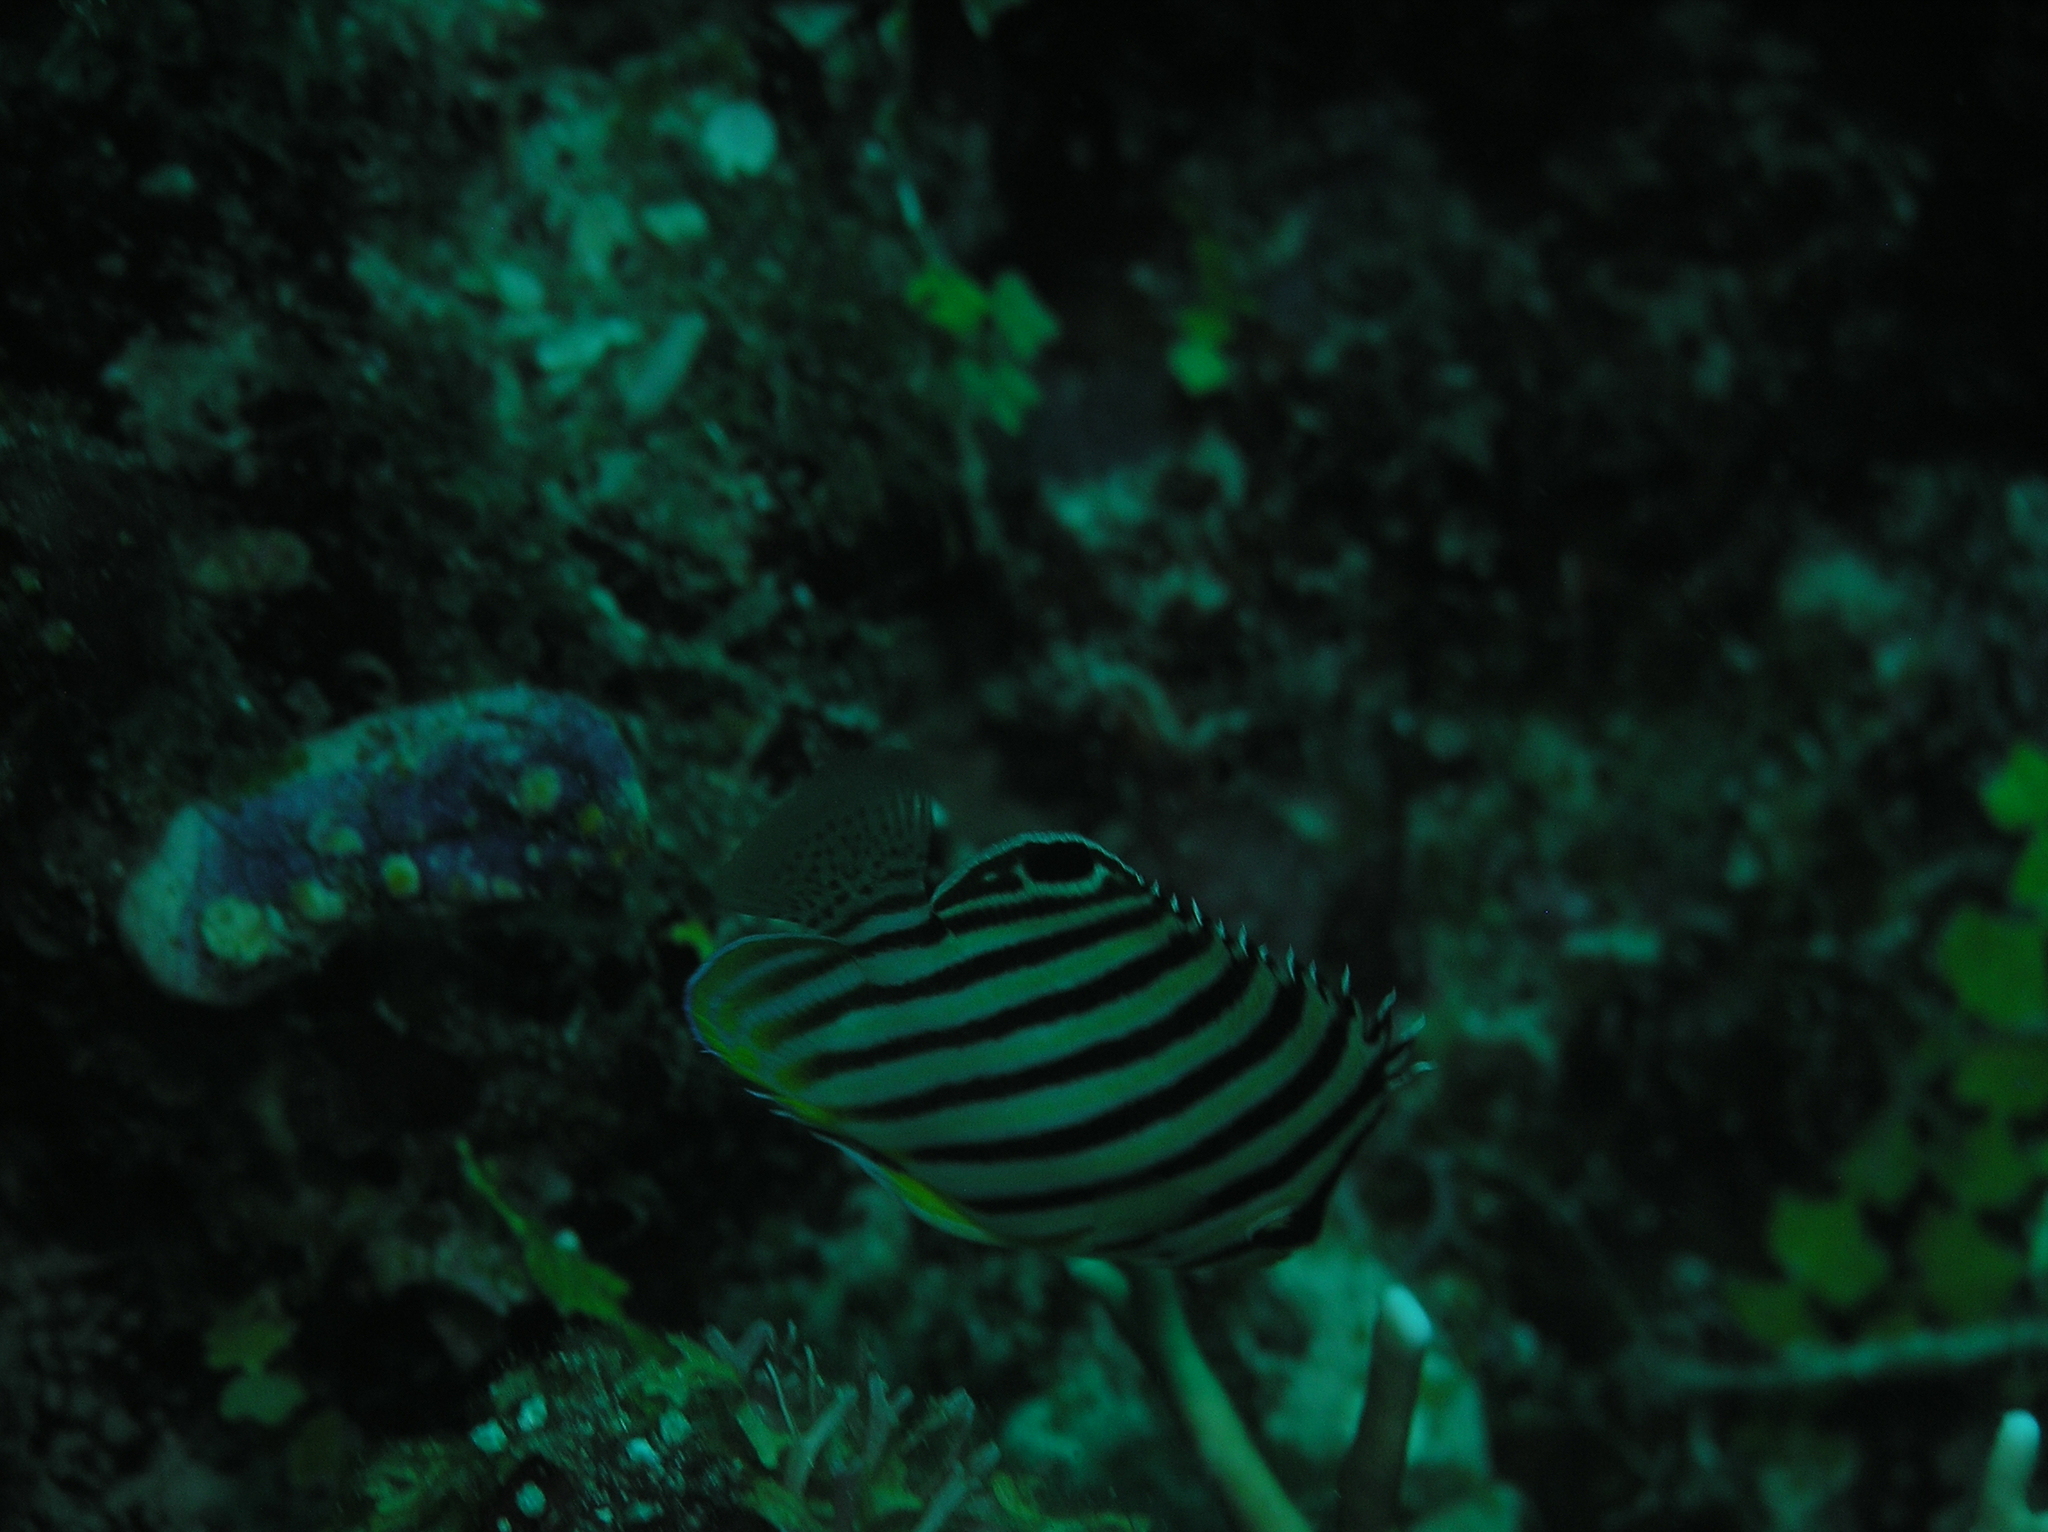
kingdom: Animalia
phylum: Chordata
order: Perciformes
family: Pomacanthidae
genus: Paracentropyge
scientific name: Paracentropyge multifasciata
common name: Barred angelfish
